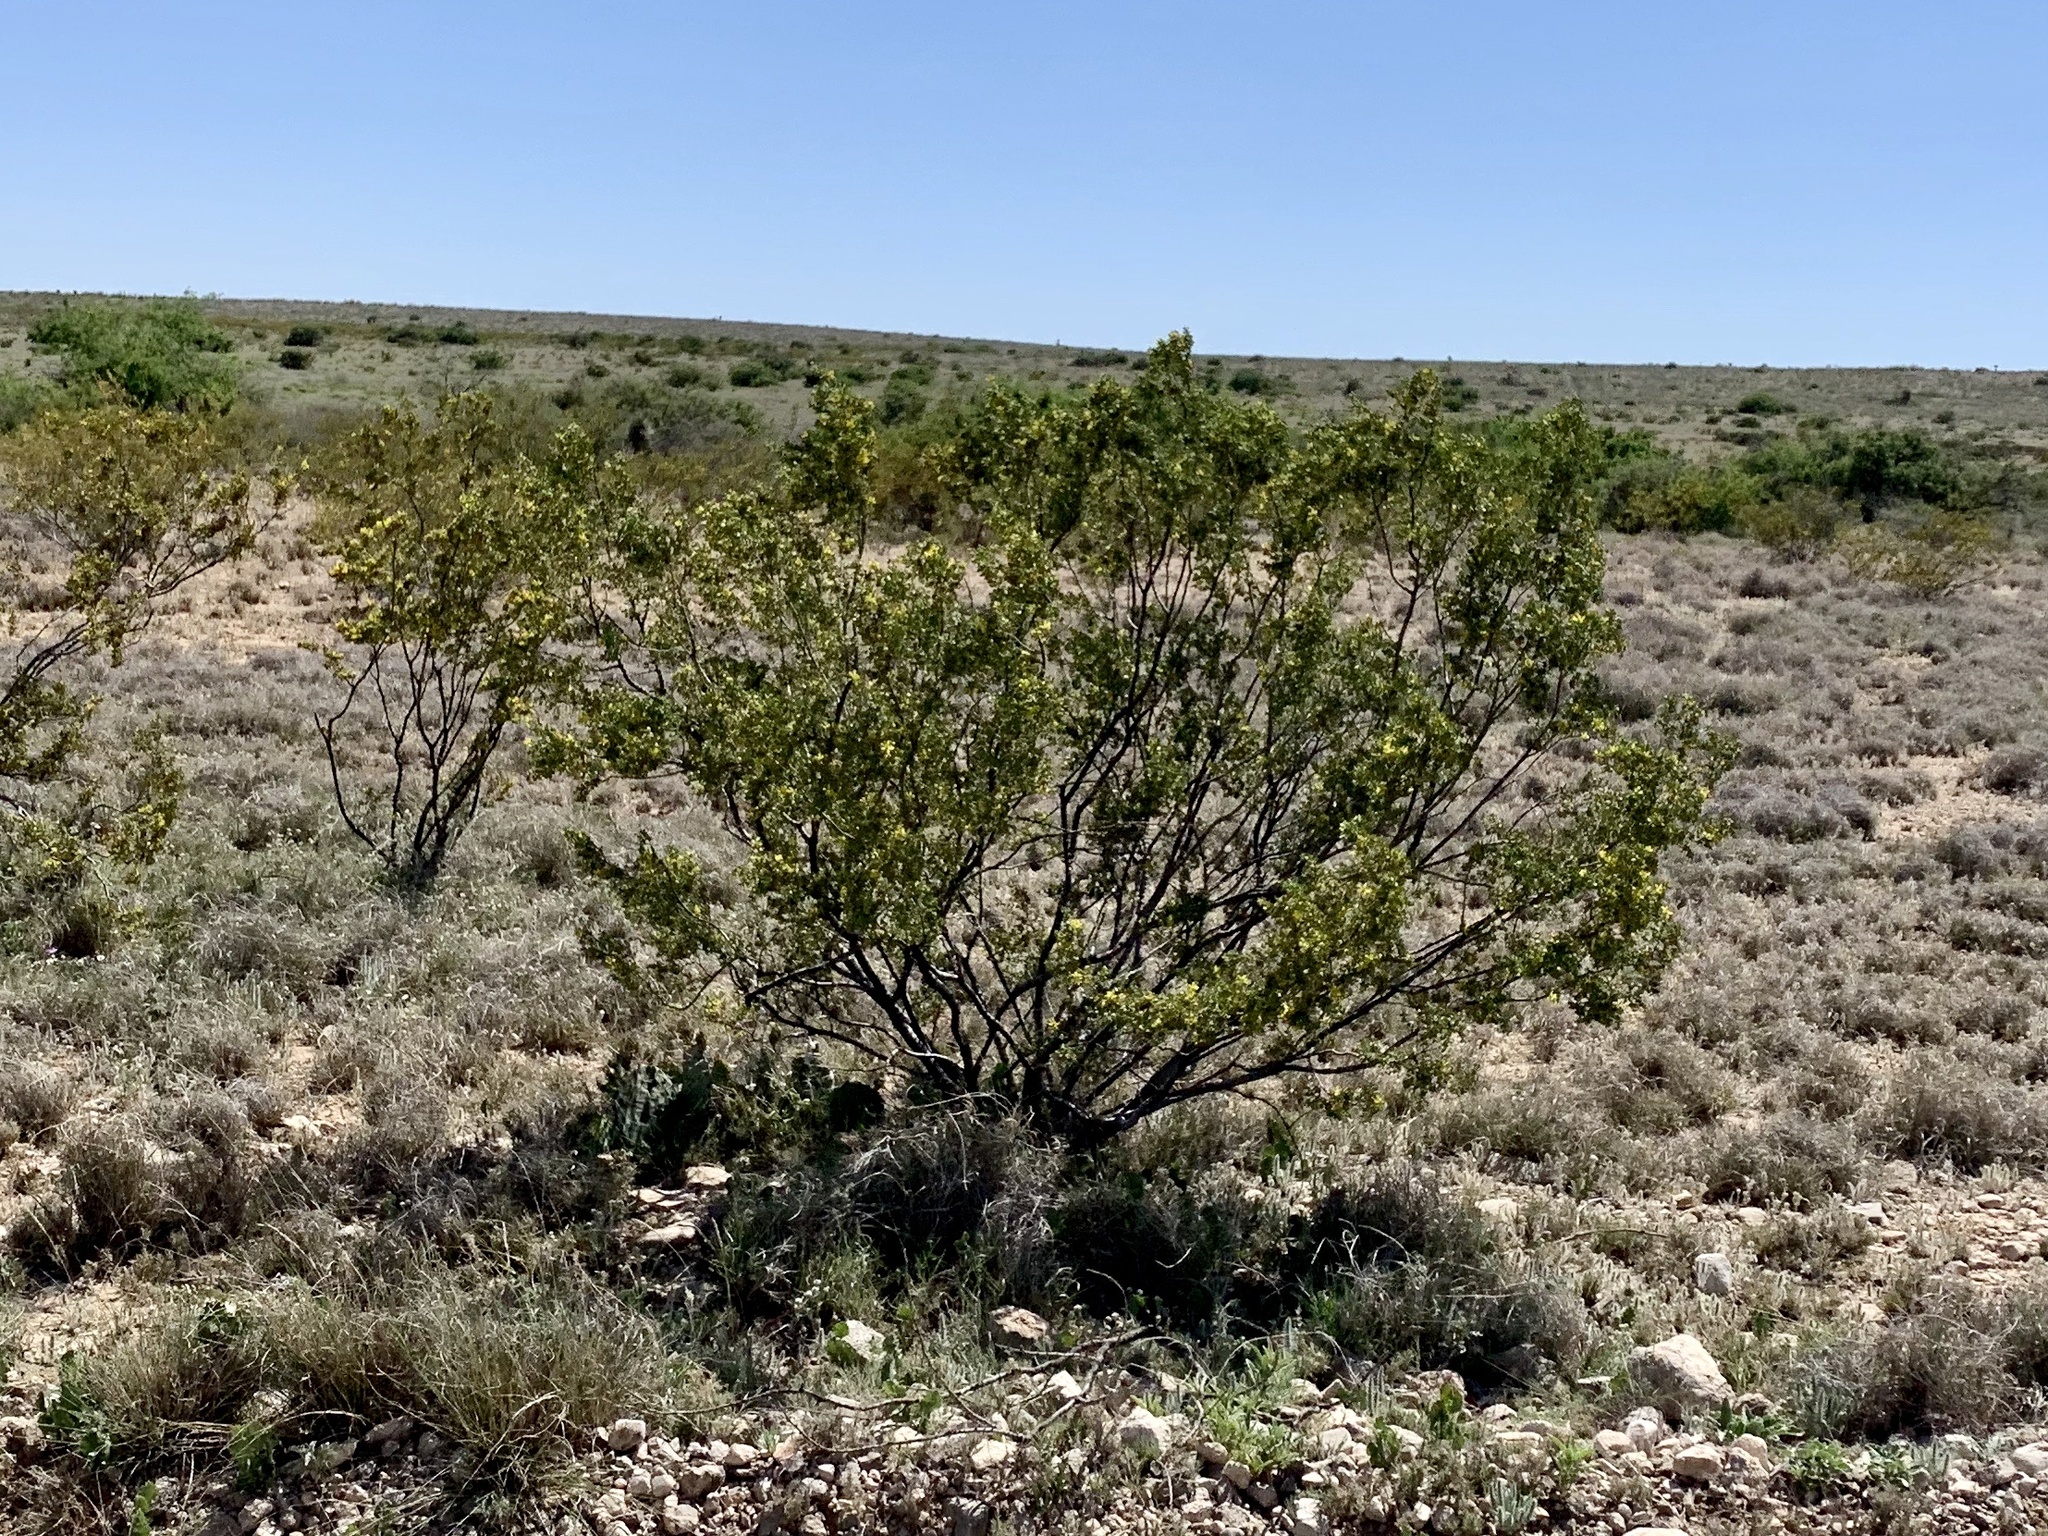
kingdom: Plantae
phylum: Tracheophyta
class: Magnoliopsida
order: Zygophyllales
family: Zygophyllaceae
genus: Larrea
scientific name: Larrea tridentata
